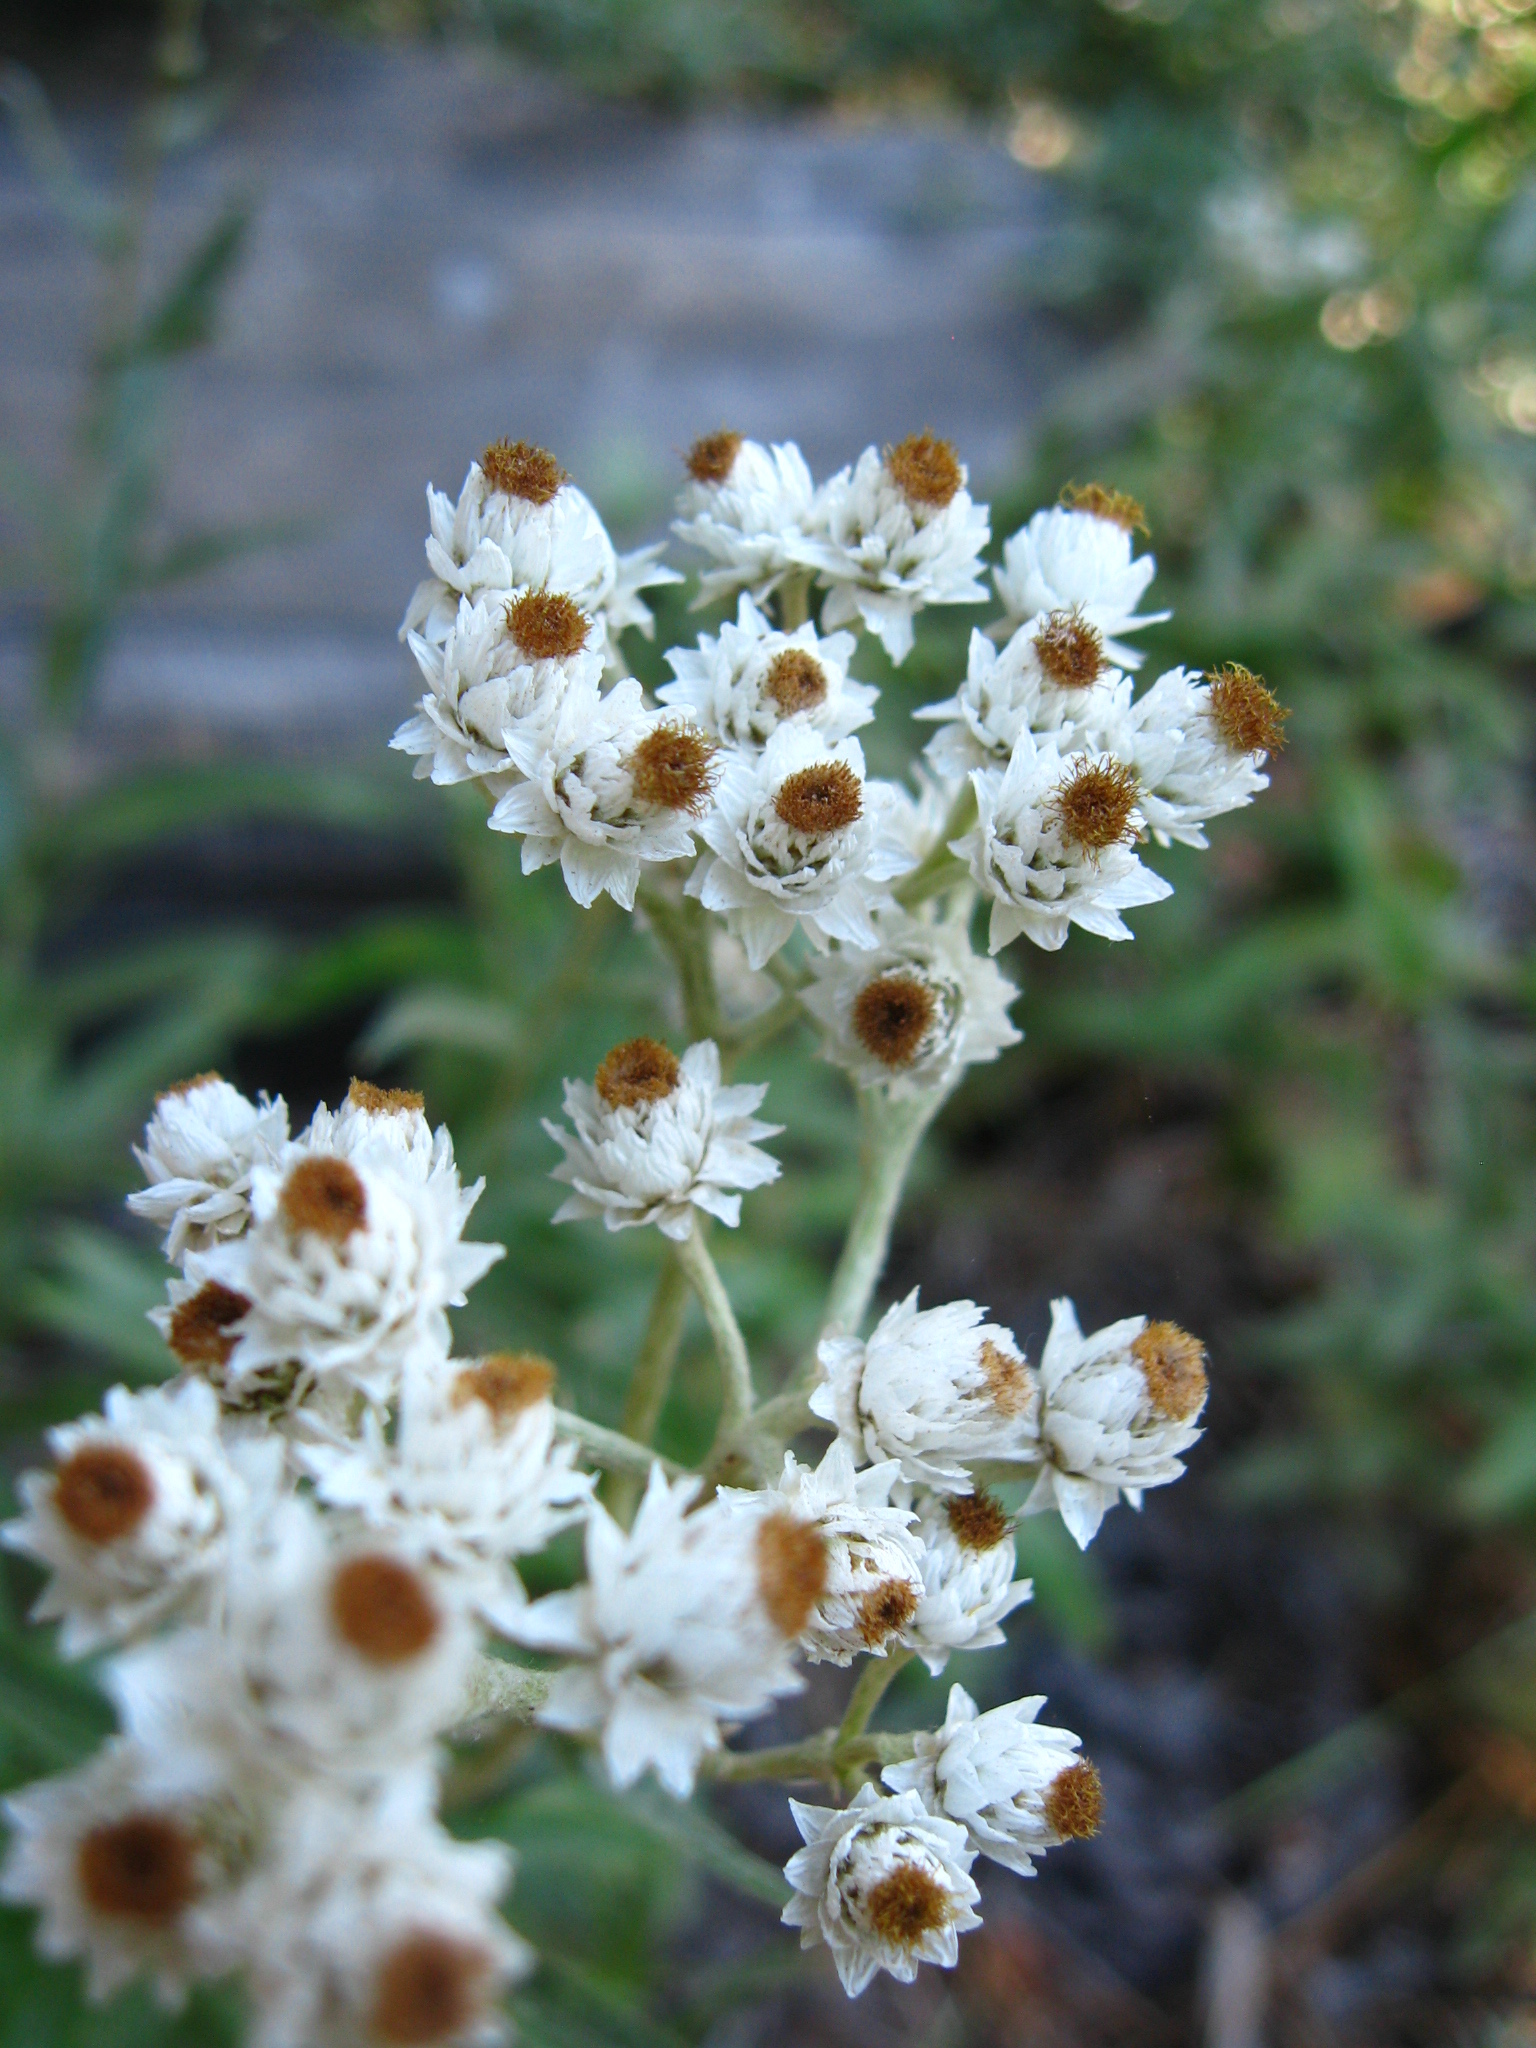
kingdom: Plantae
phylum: Tracheophyta
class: Magnoliopsida
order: Asterales
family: Asteraceae
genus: Anaphalis
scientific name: Anaphalis margaritacea
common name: Pearly everlasting
